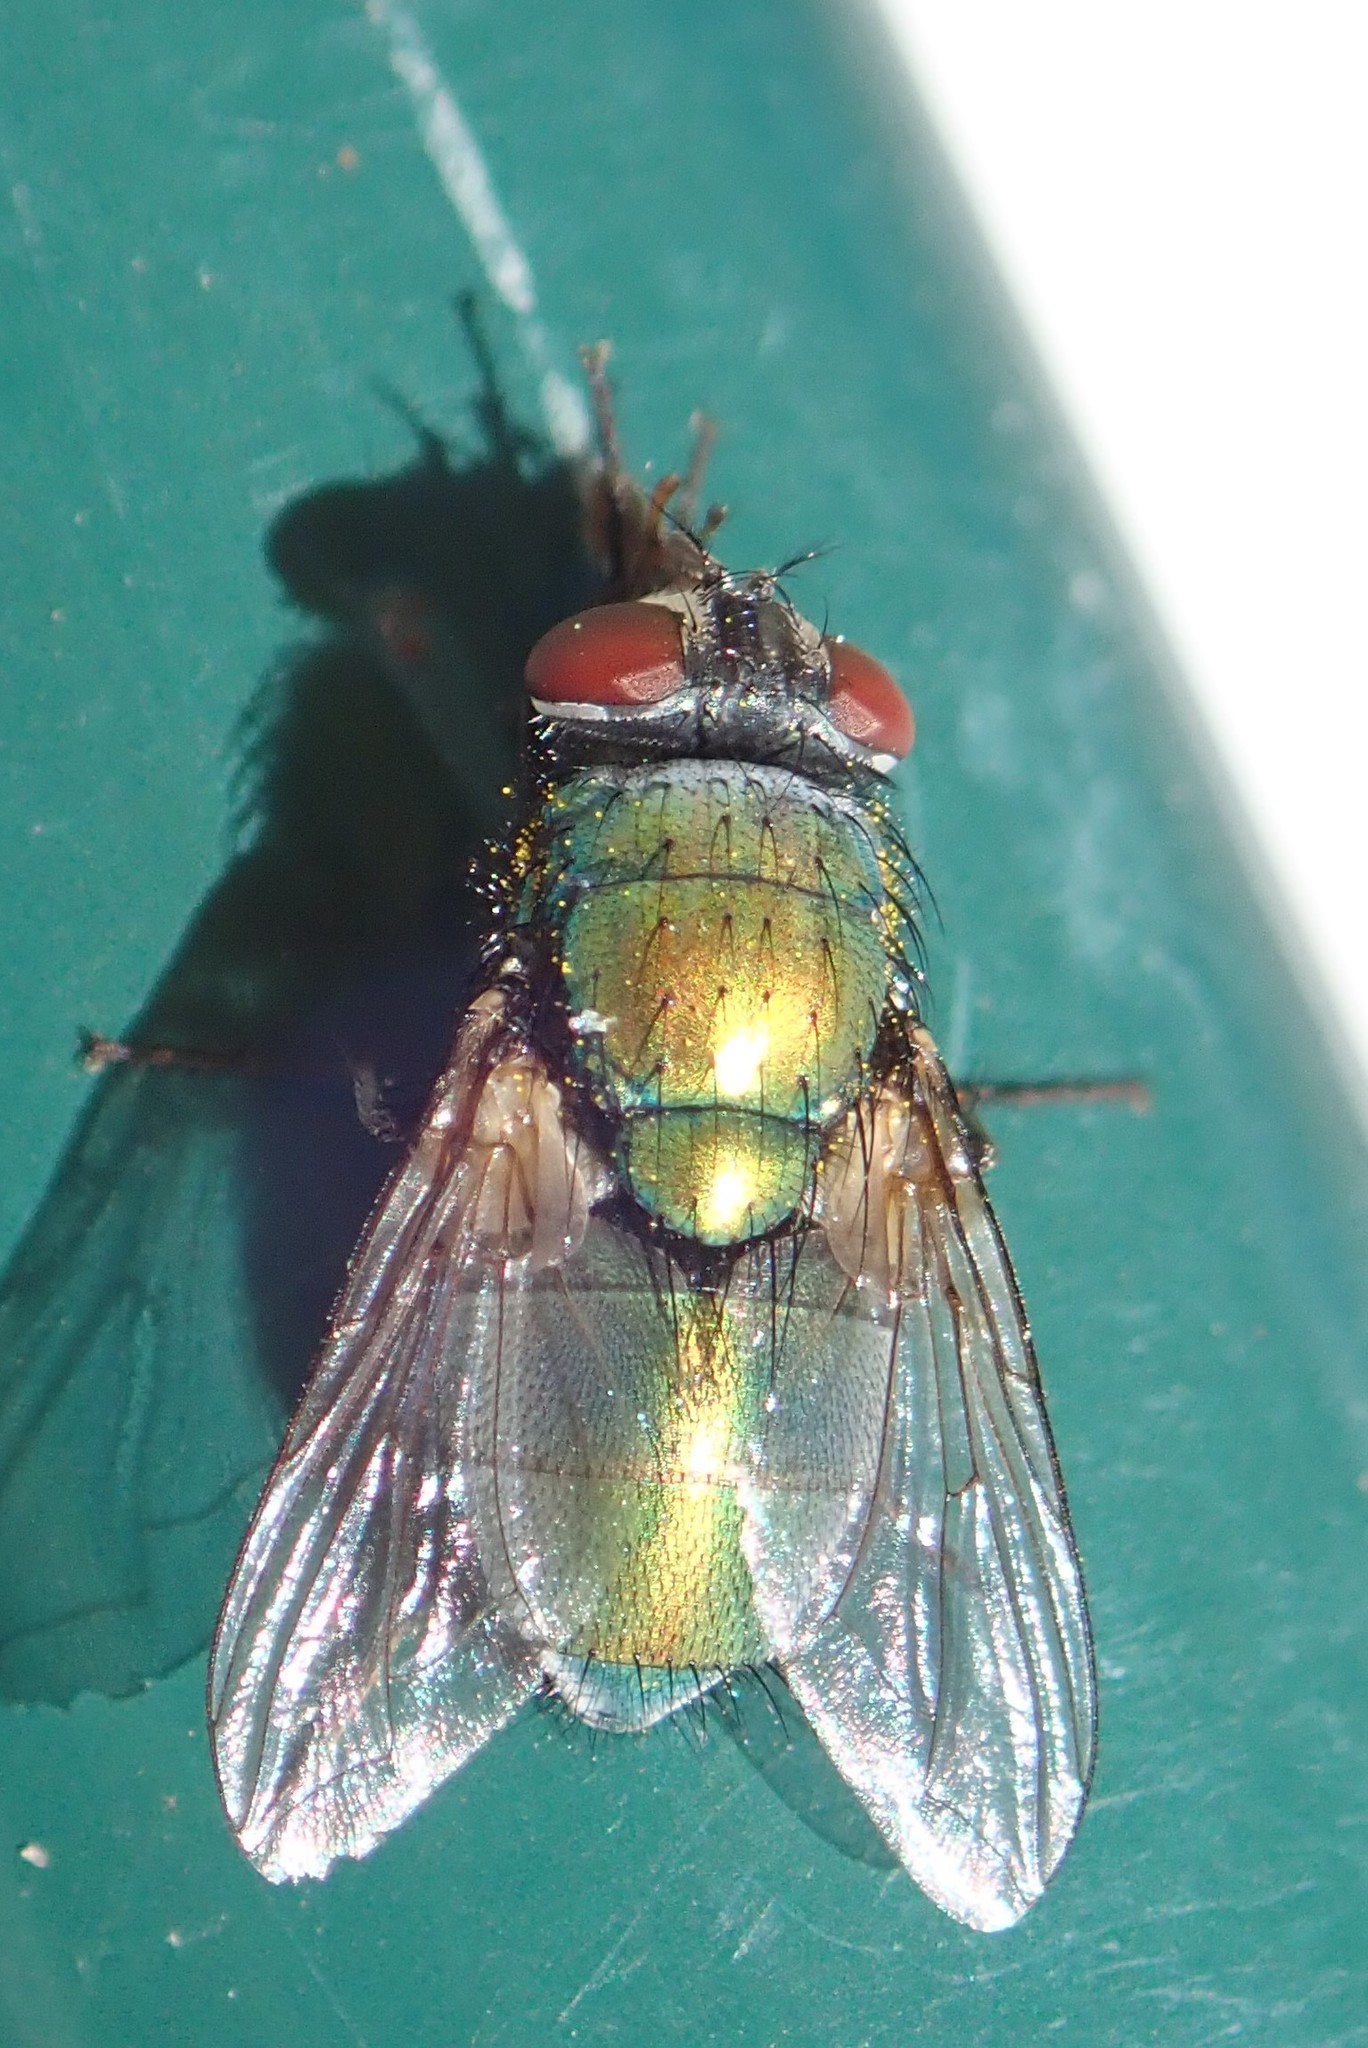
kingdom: Animalia
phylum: Arthropoda
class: Insecta
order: Diptera
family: Calliphoridae
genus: Lucilia
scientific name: Lucilia sericata
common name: Blow fly
